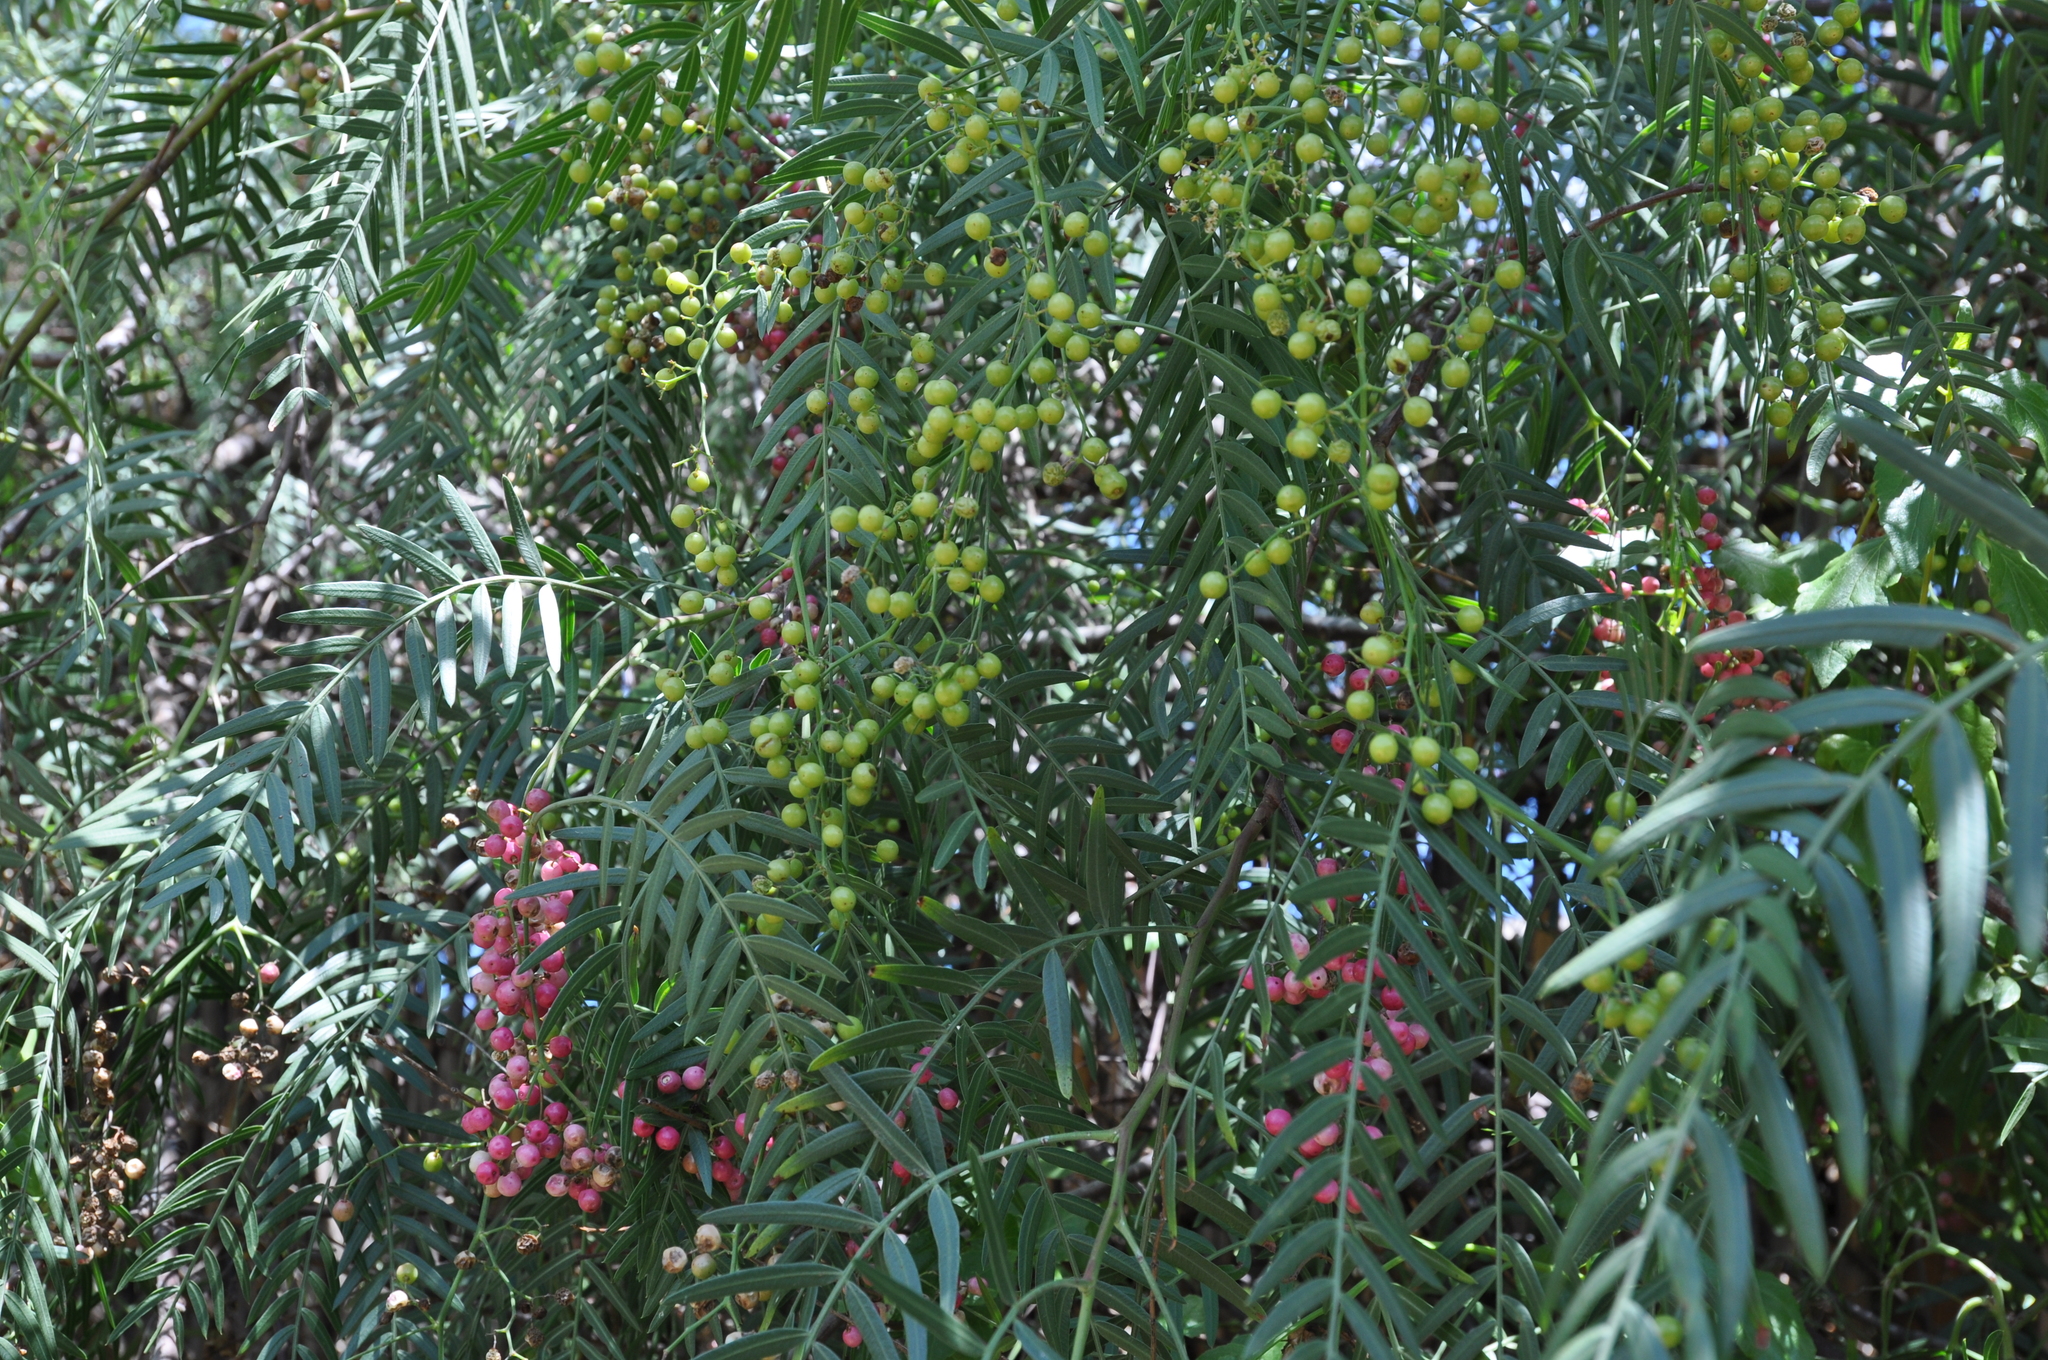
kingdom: Plantae
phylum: Tracheophyta
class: Magnoliopsida
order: Sapindales
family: Anacardiaceae
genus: Schinus
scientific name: Schinus molle
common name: Peruvian peppertree
